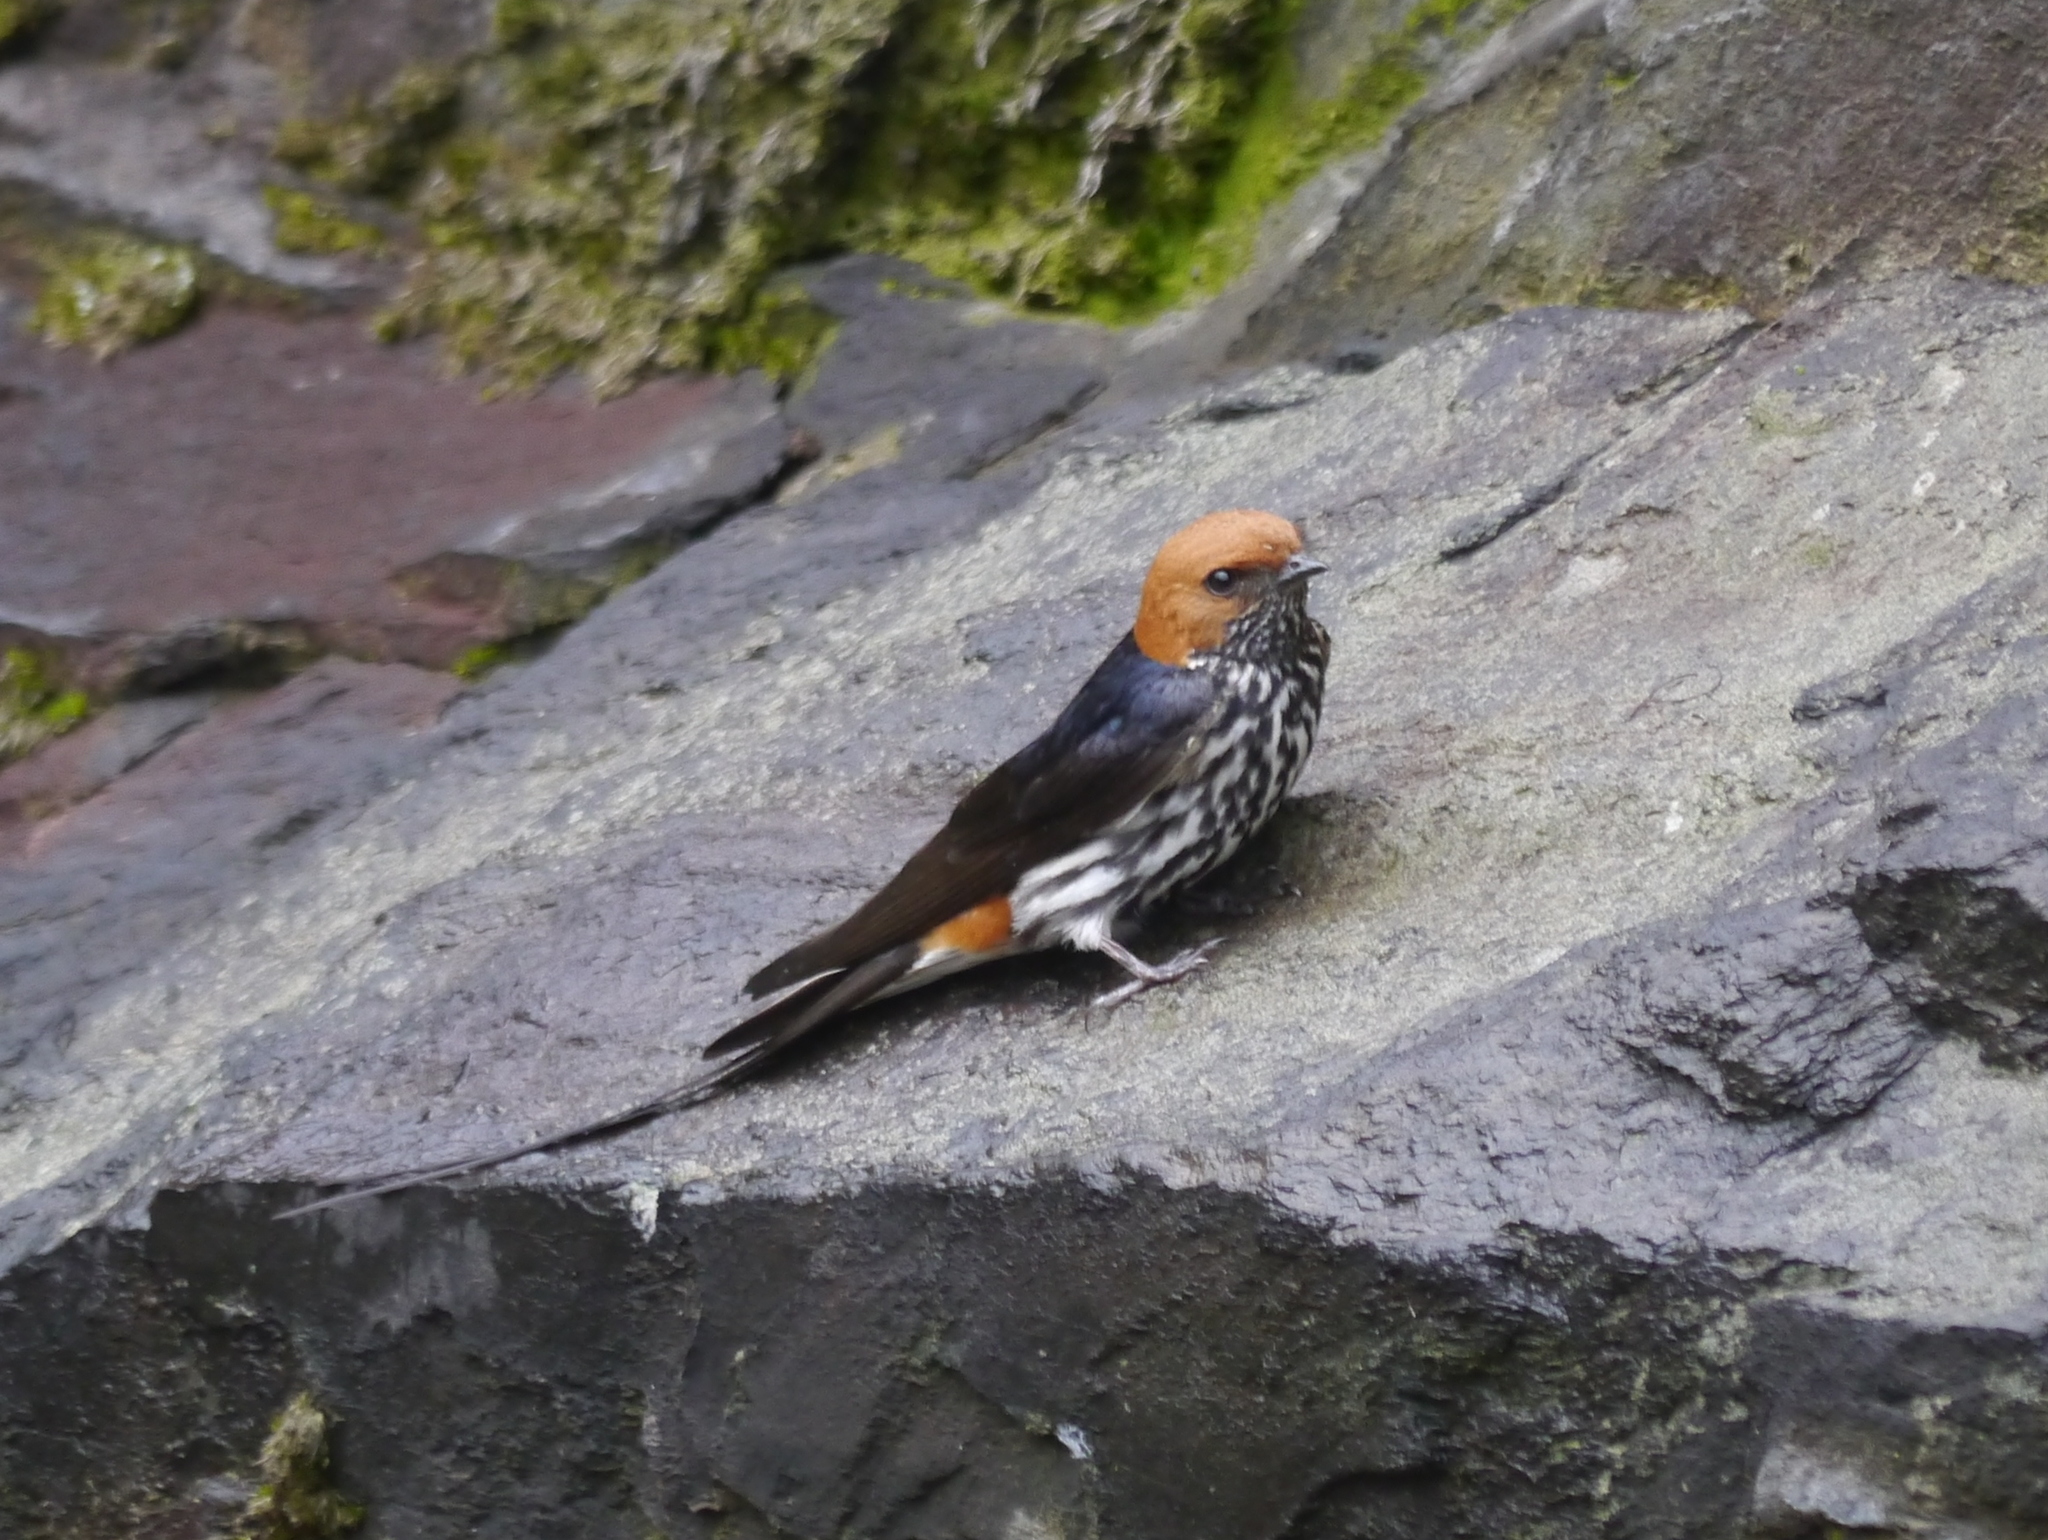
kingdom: Animalia
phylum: Chordata
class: Aves
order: Passeriformes
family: Hirundinidae
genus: Cecropis
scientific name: Cecropis abyssinica
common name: Lesser striped-swallow
